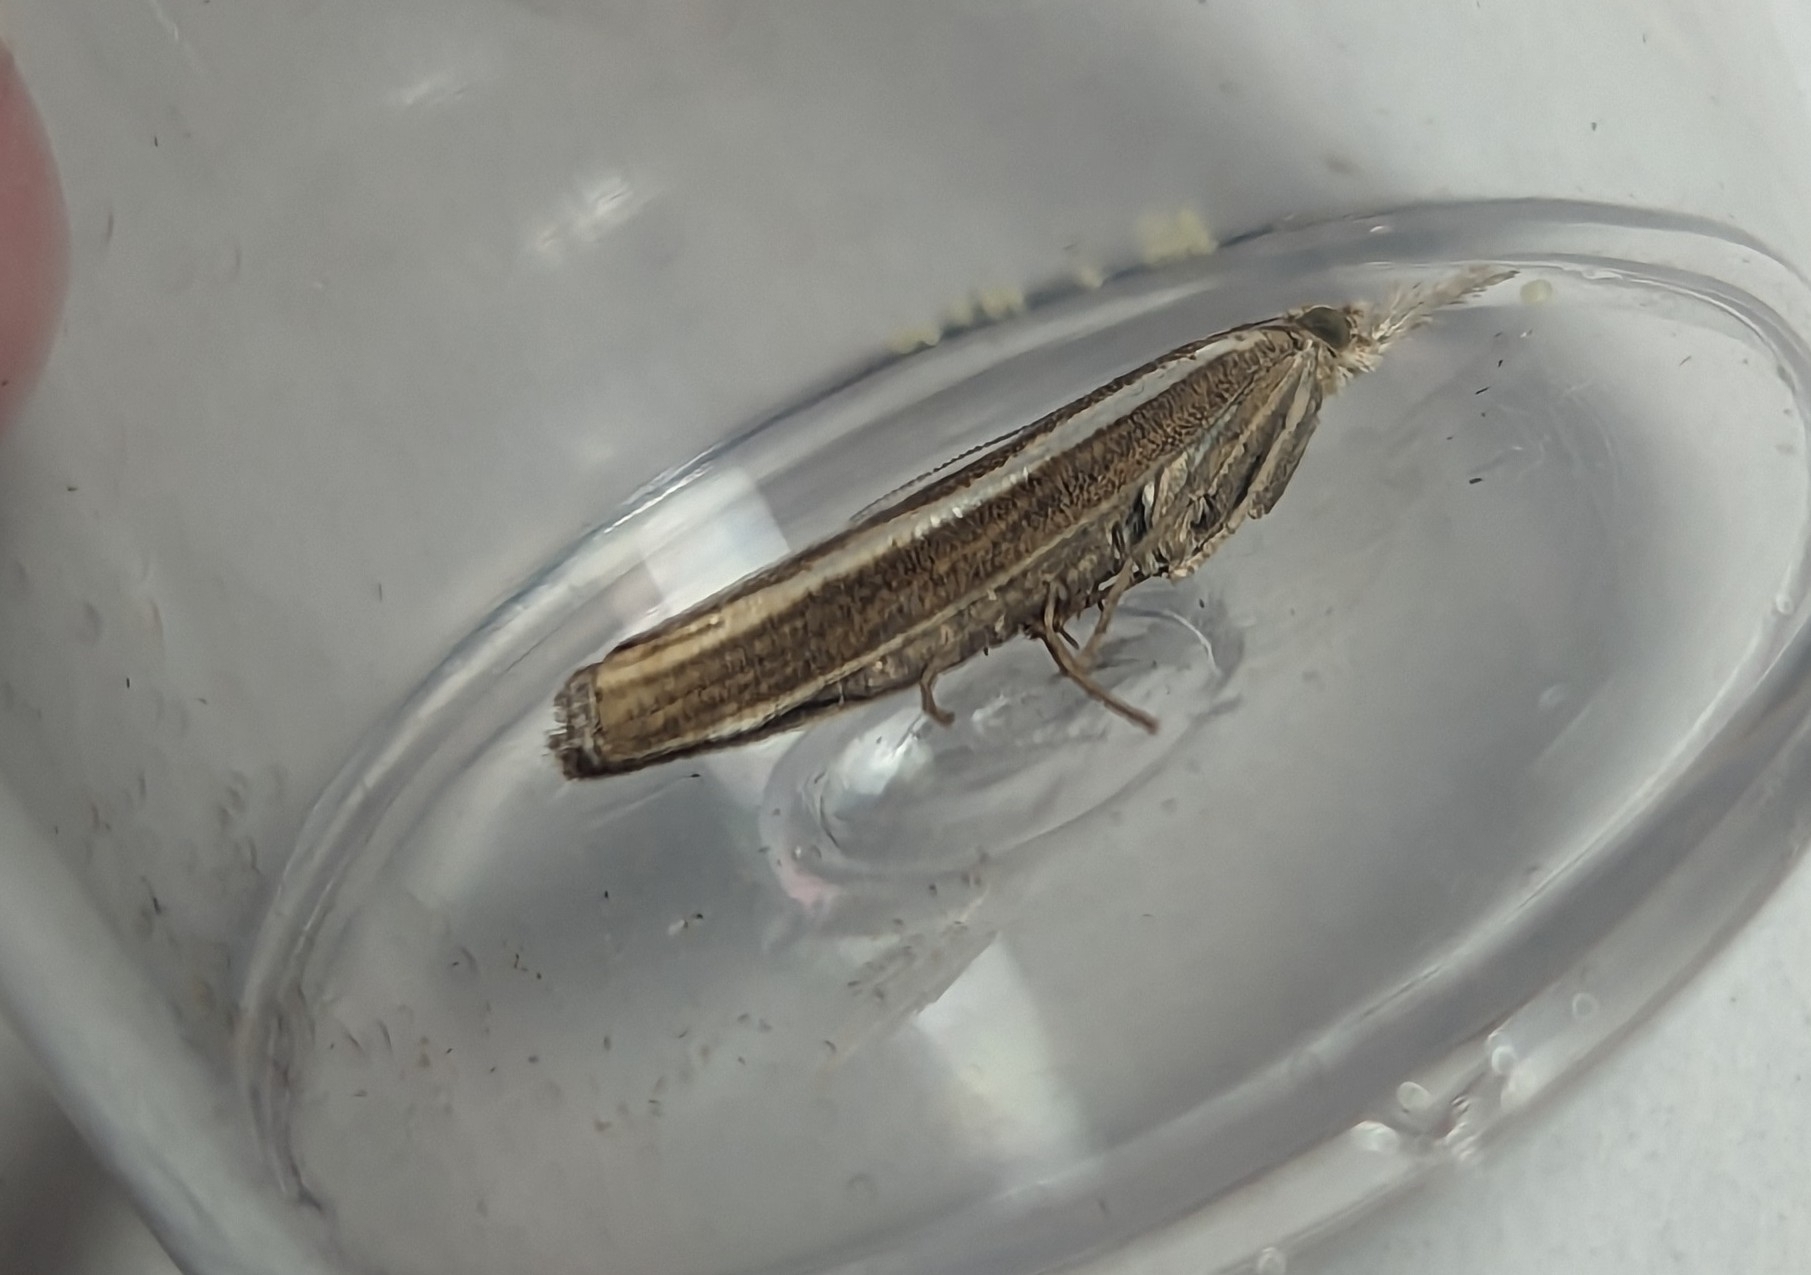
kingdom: Animalia
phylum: Arthropoda
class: Insecta
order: Lepidoptera
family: Crambidae
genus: Agriphila
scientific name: Agriphila tristellus
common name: Common grass-veneer
